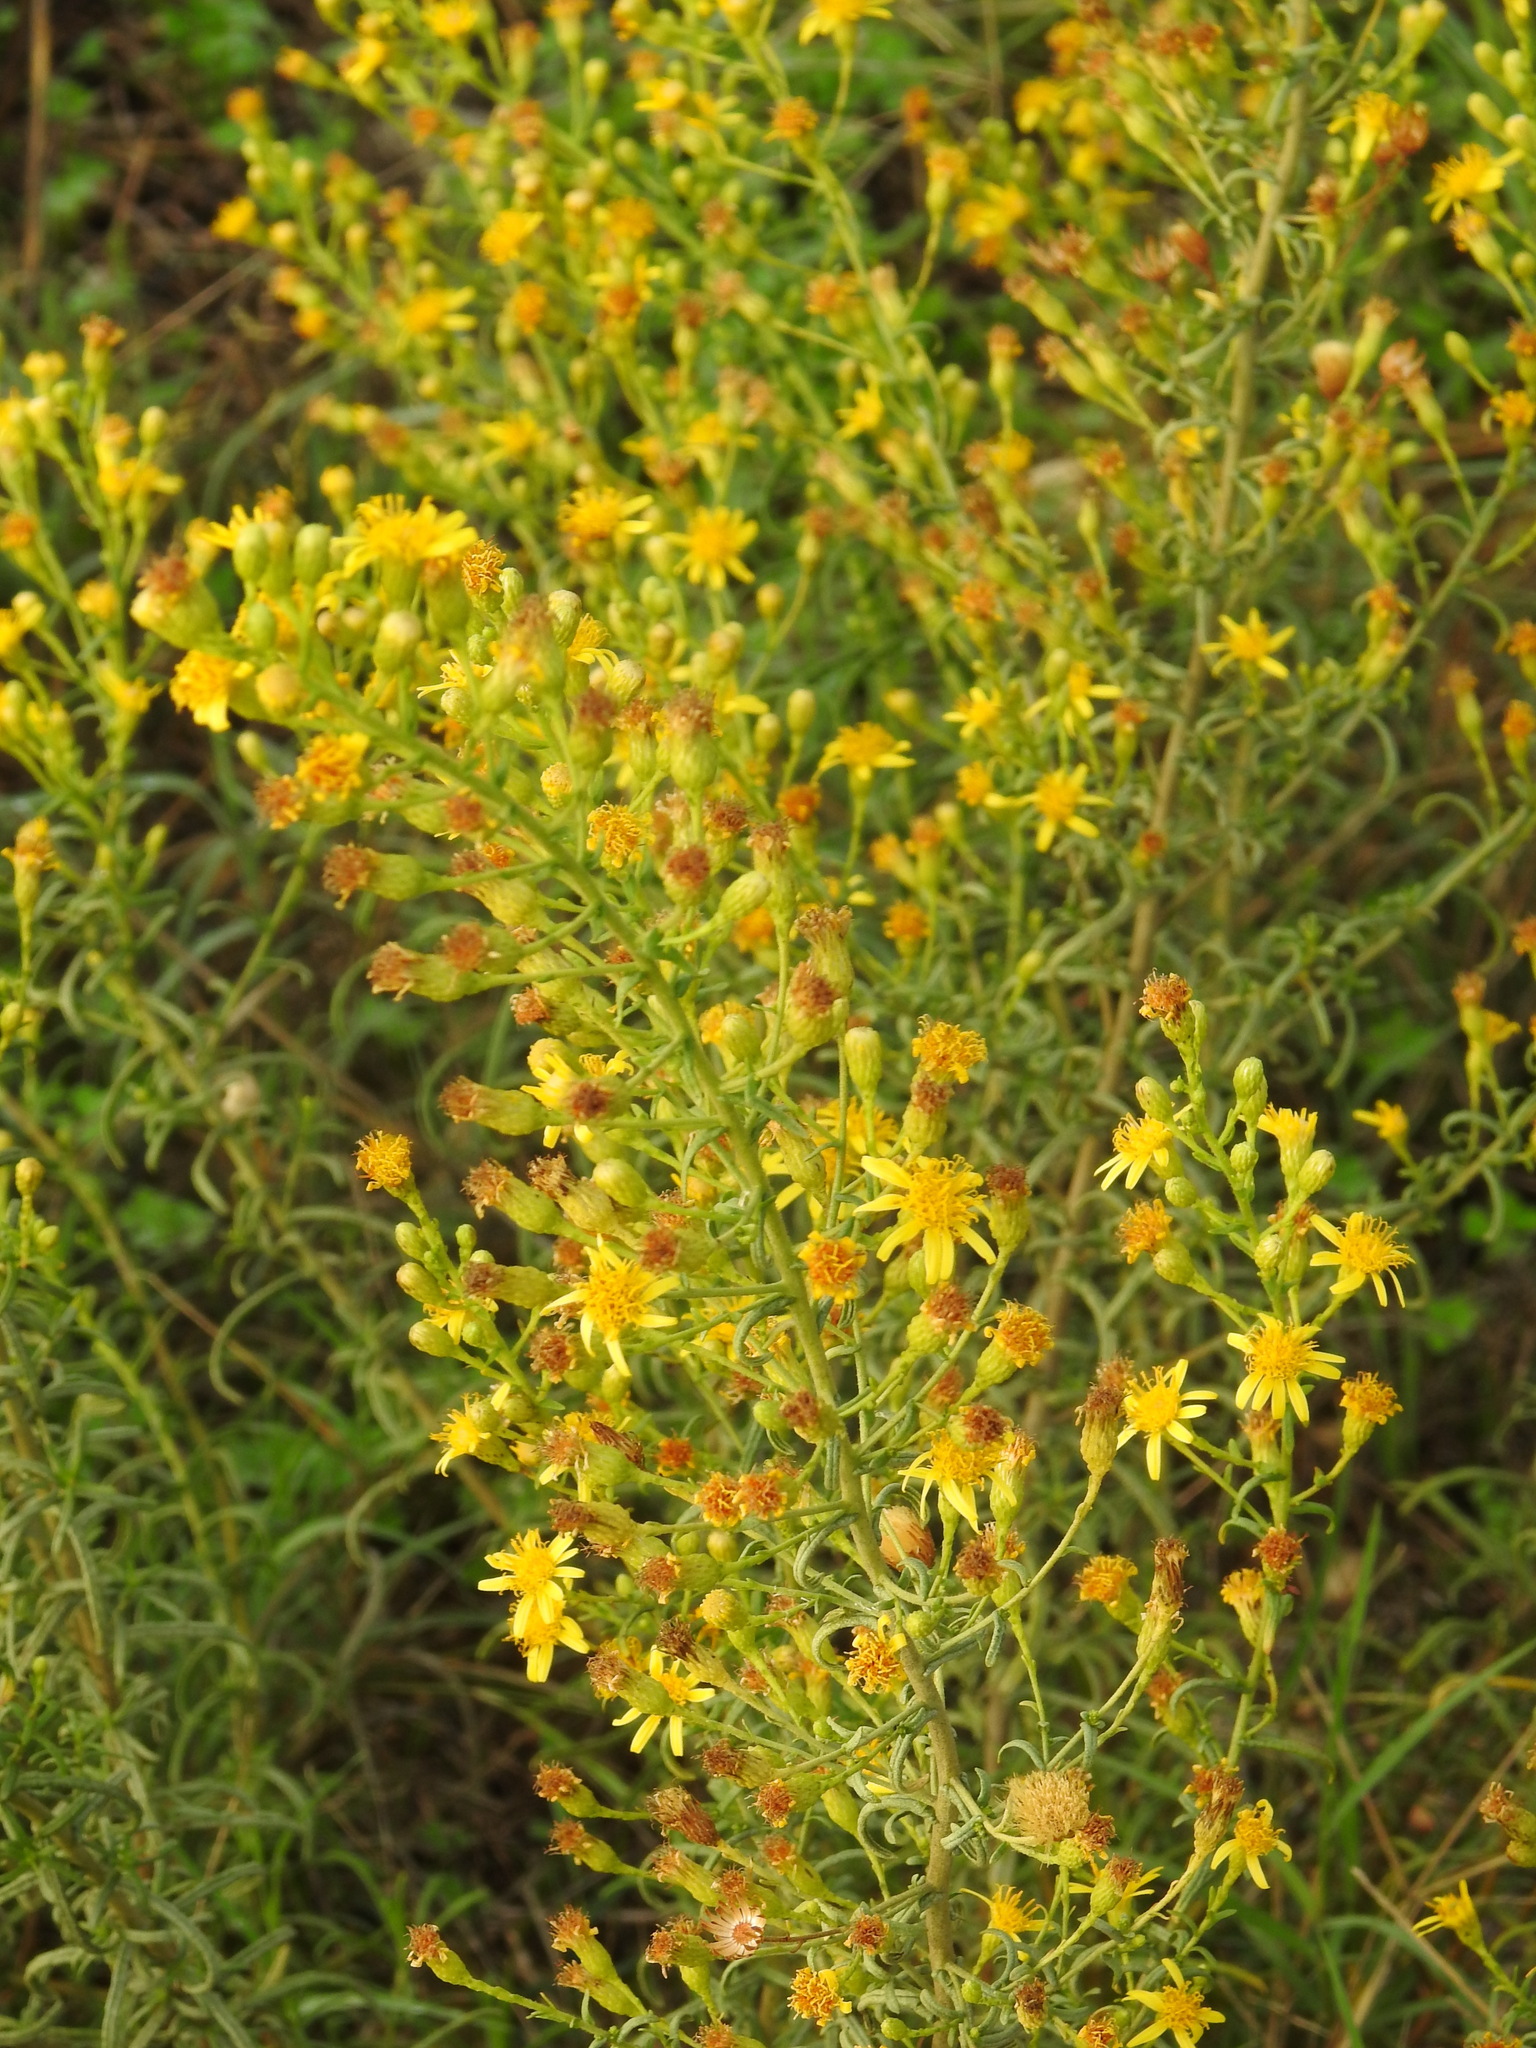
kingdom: Plantae
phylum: Tracheophyta
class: Magnoliopsida
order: Asterales
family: Asteraceae
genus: Dittrichia
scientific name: Dittrichia viscosa
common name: Woody fleabane
